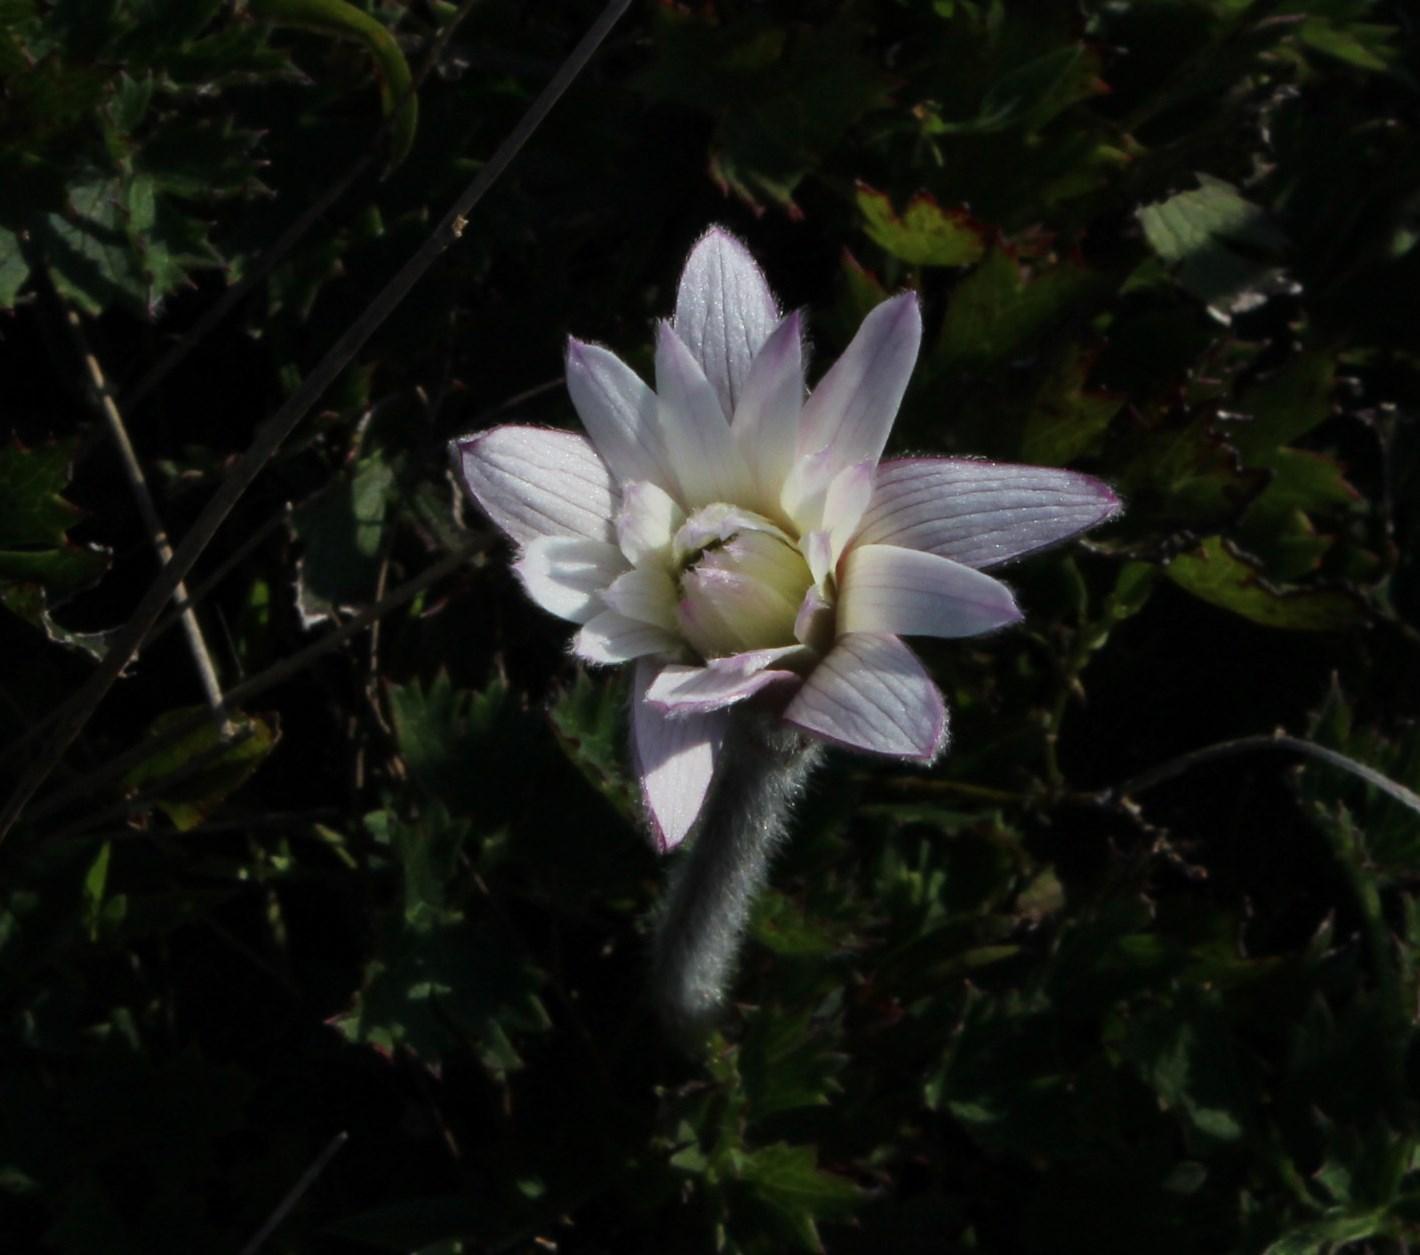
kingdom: Plantae
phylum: Tracheophyta
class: Magnoliopsida
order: Ranunculales
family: Ranunculaceae
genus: Knowltonia
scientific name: Knowltonia tenuifolia
